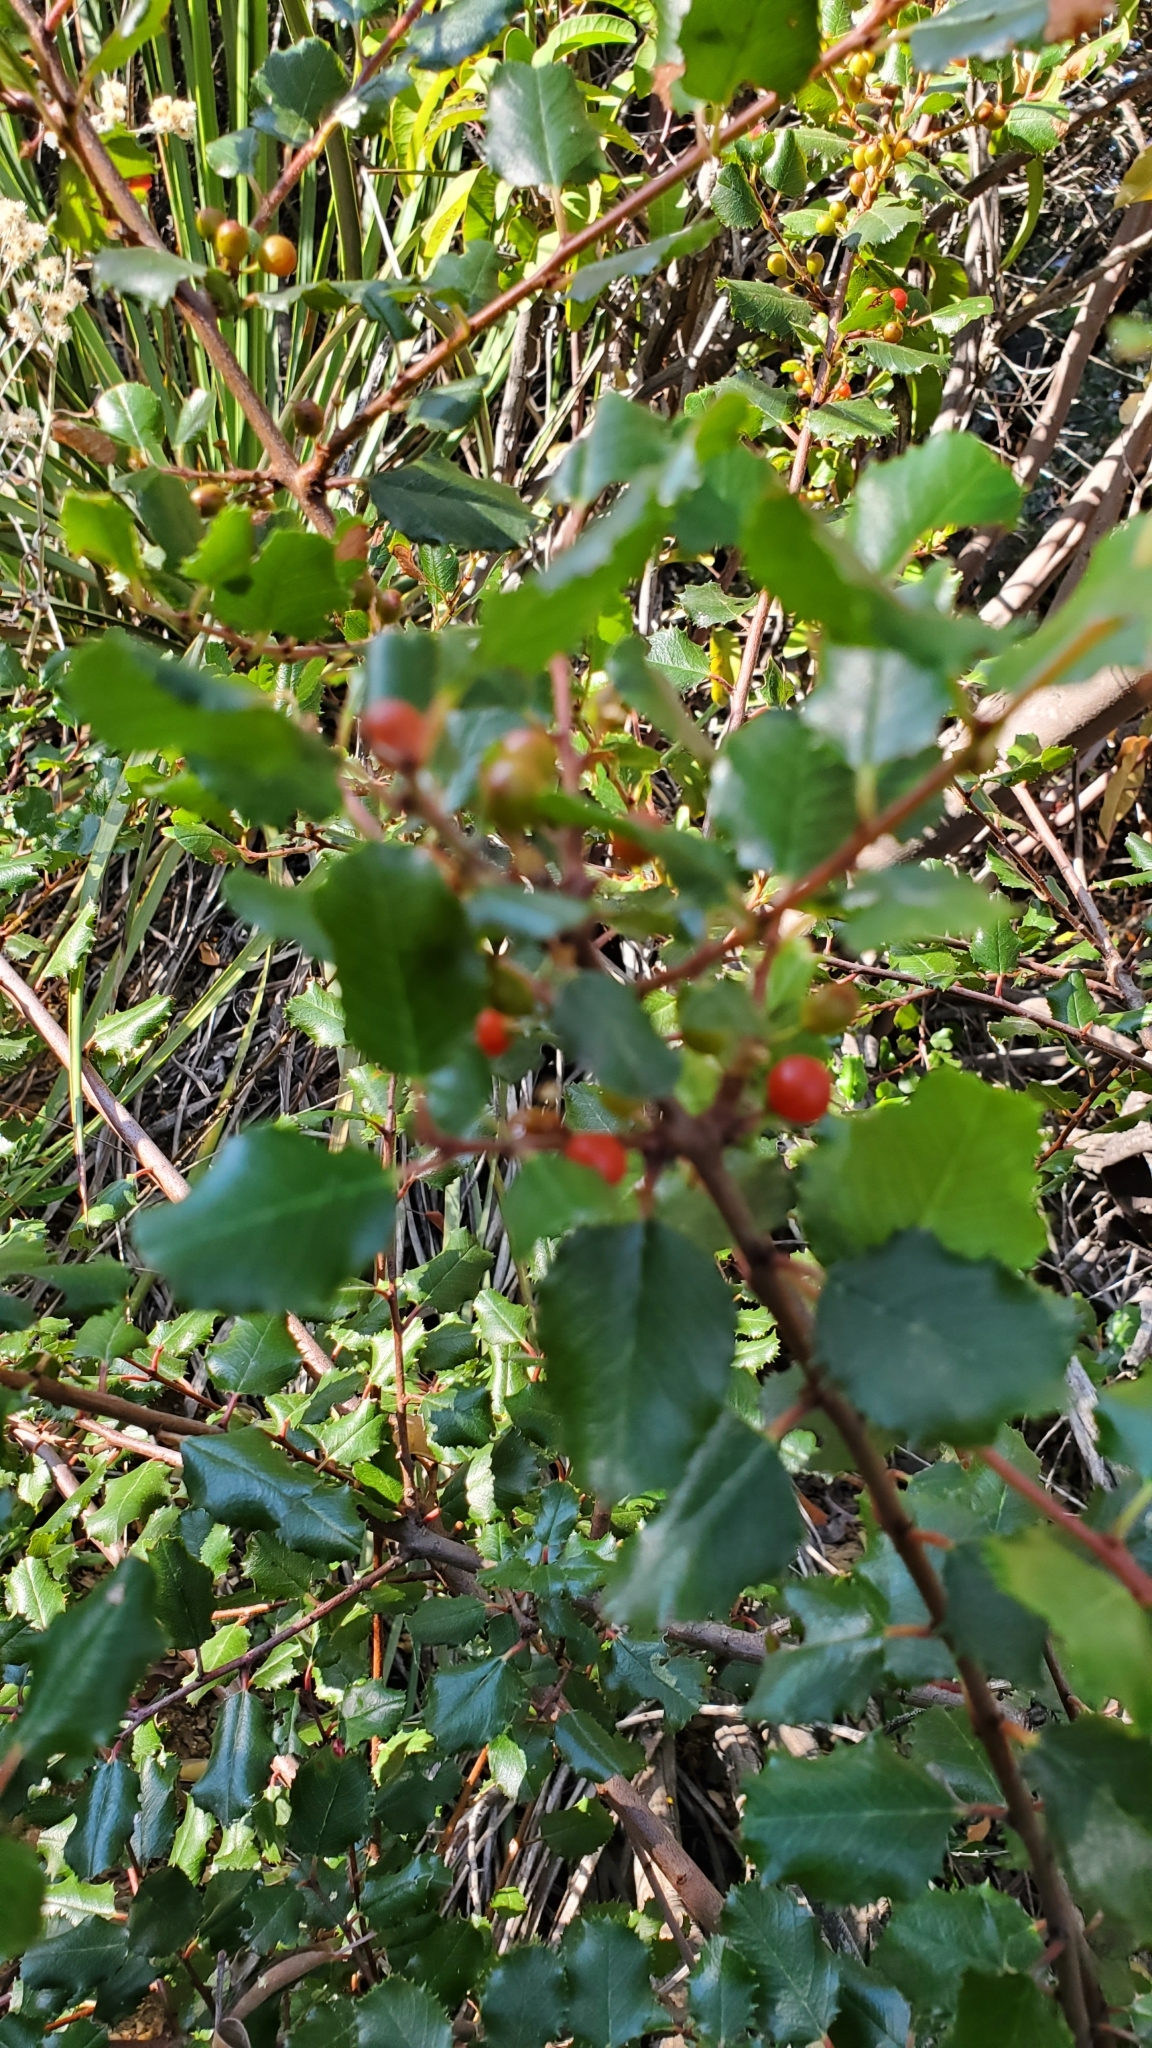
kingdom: Plantae
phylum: Tracheophyta
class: Magnoliopsida
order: Rosales
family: Rhamnaceae
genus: Endotropis
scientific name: Endotropis crocea
